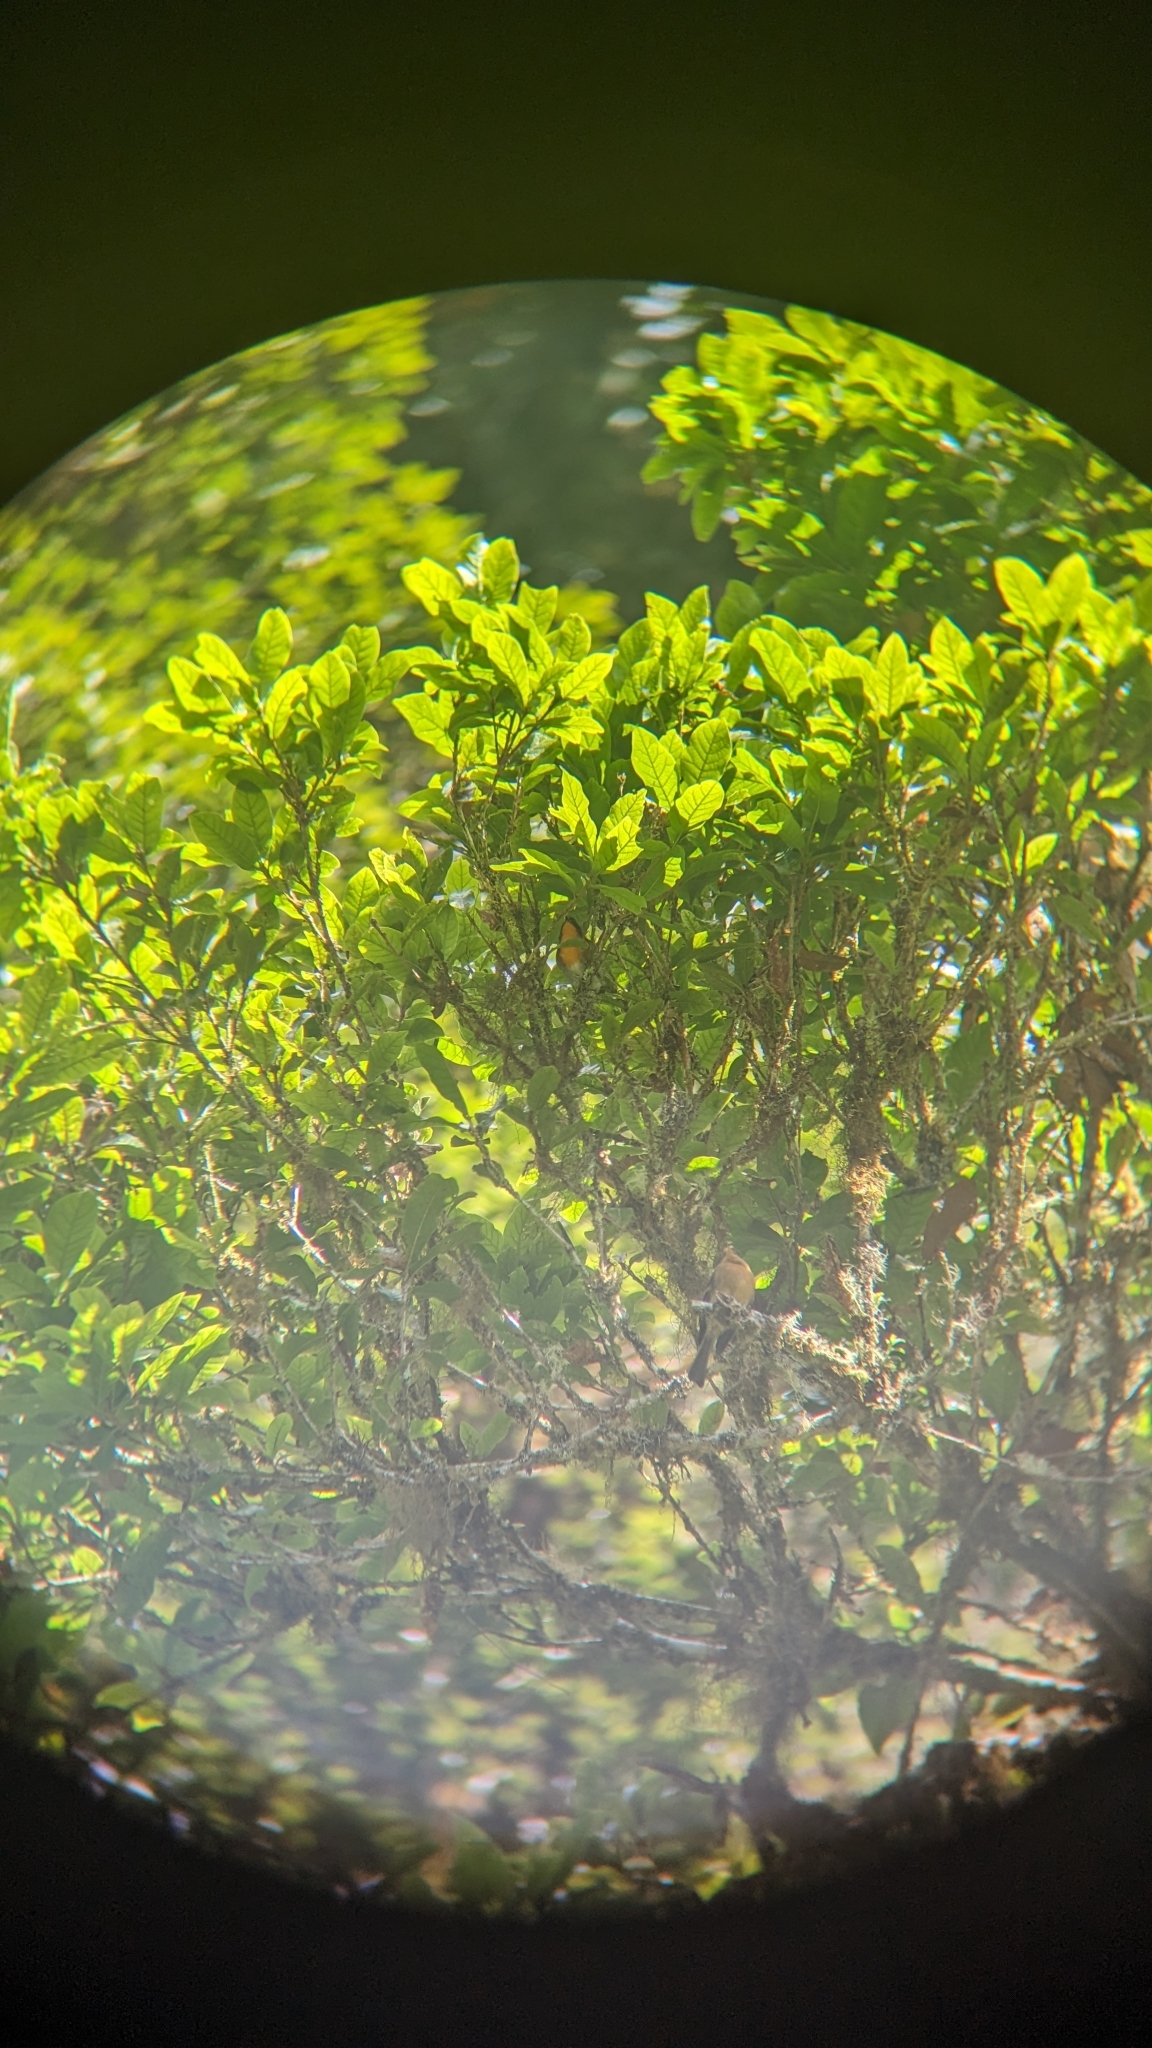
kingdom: Animalia
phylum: Chordata
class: Aves
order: Passeriformes
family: Parulidae
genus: Oreothlypis
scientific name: Oreothlypis gutturalis
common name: Flame-throated warbler
